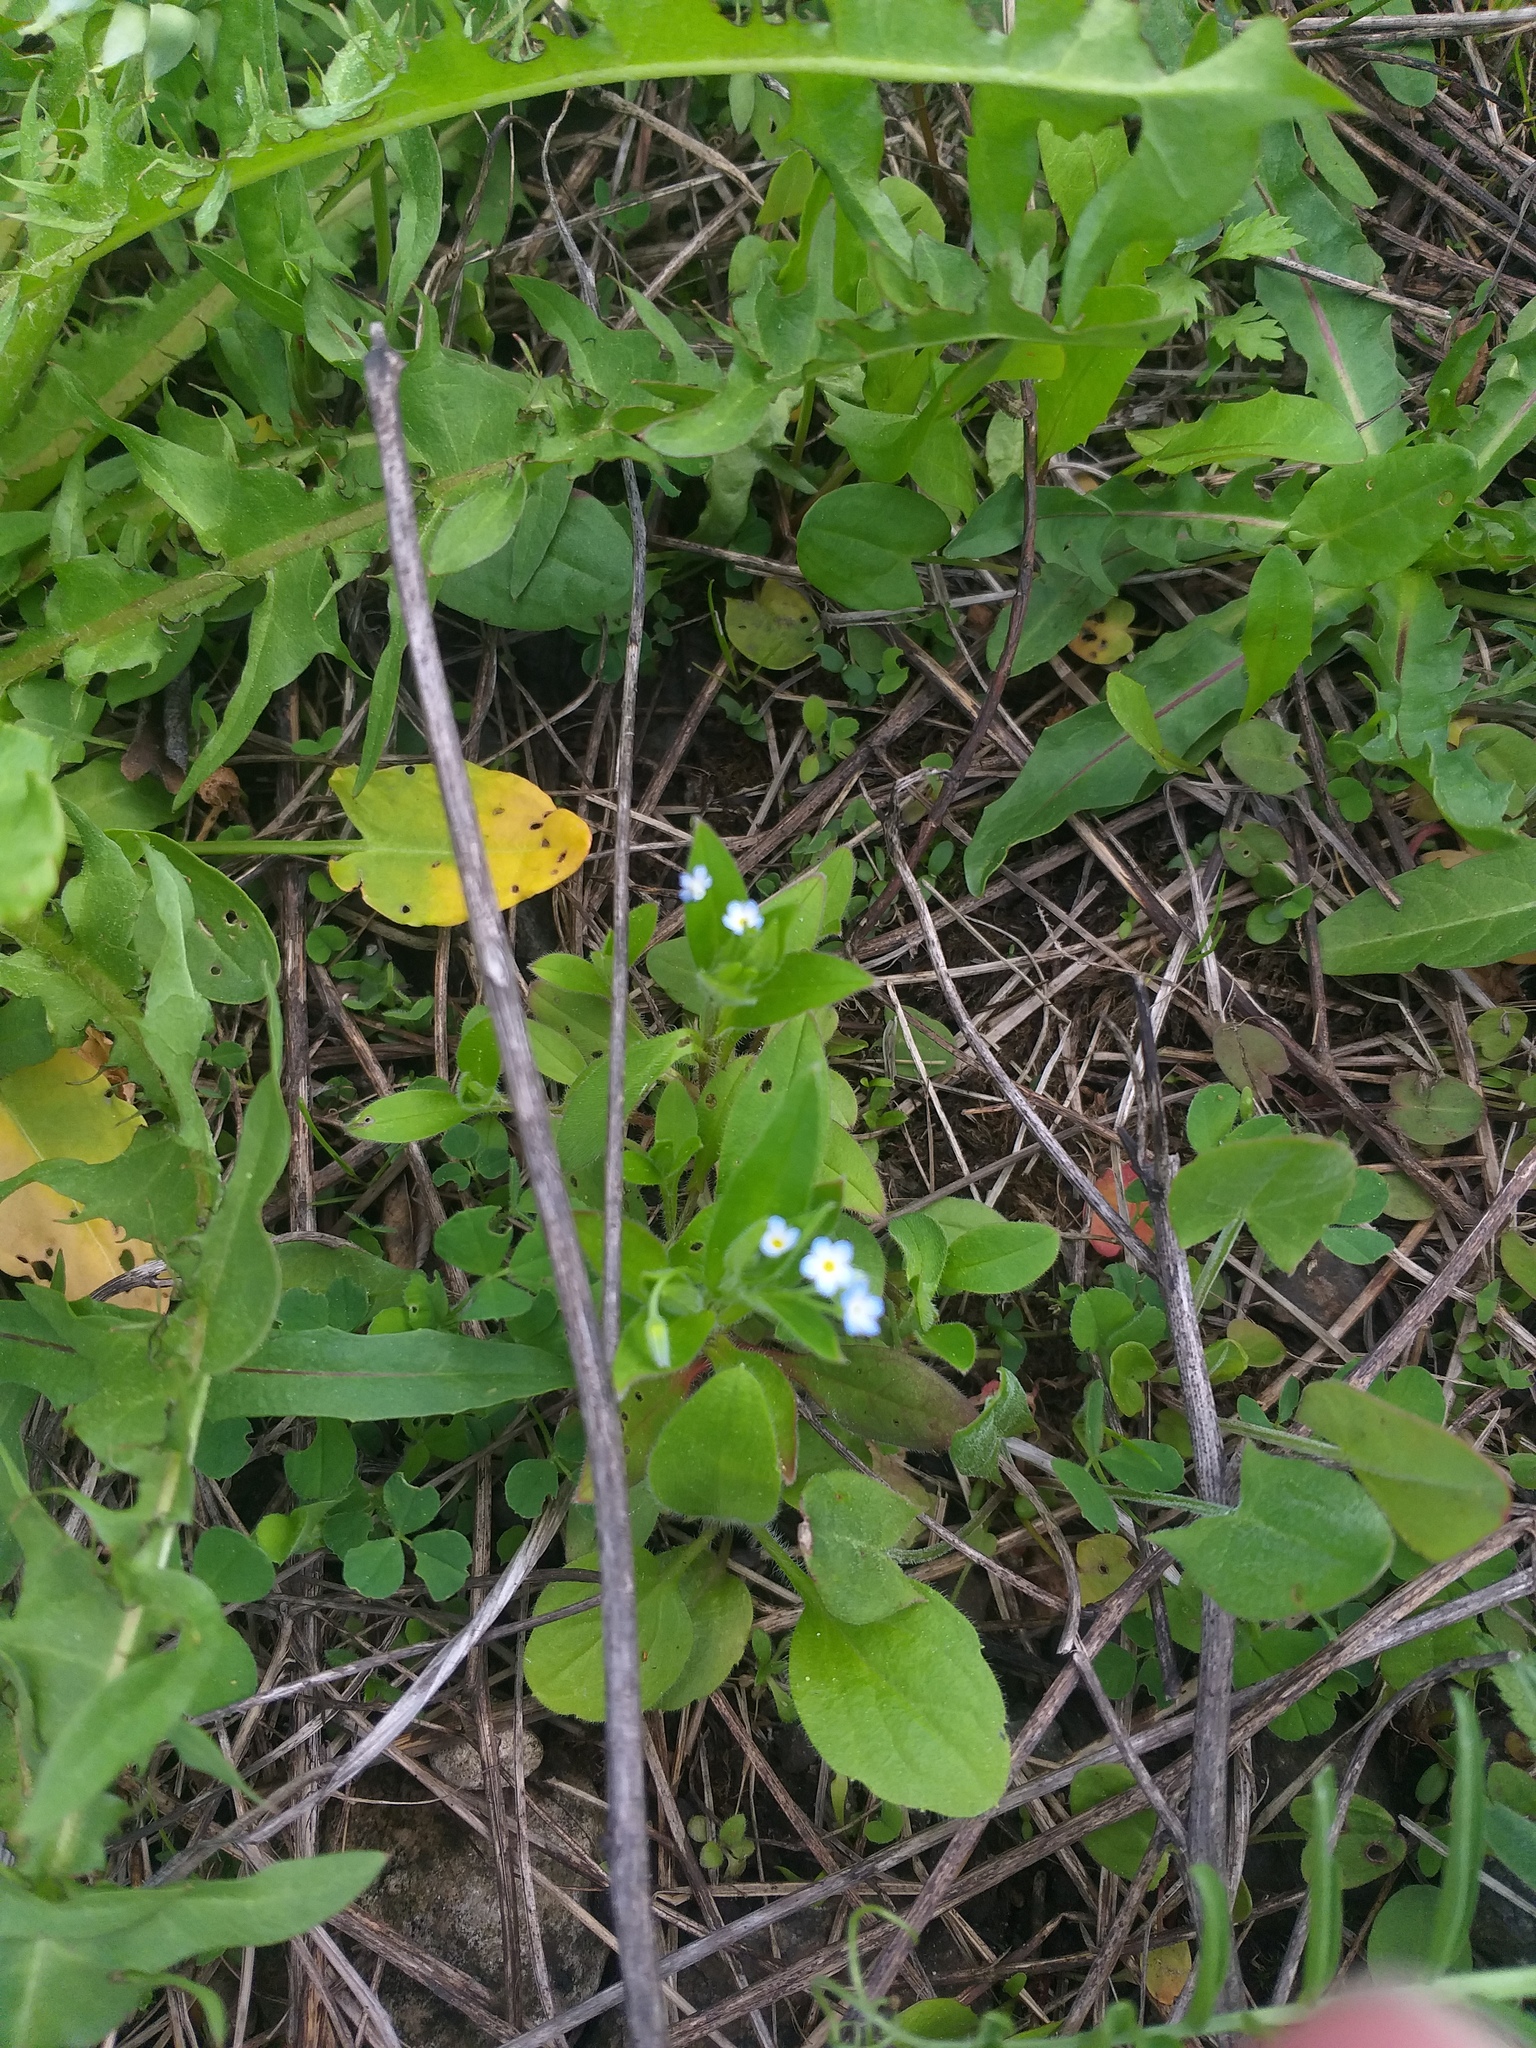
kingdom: Plantae
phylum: Tracheophyta
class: Magnoliopsida
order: Boraginales
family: Boraginaceae
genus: Myosotis
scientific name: Myosotis sparsiflora
